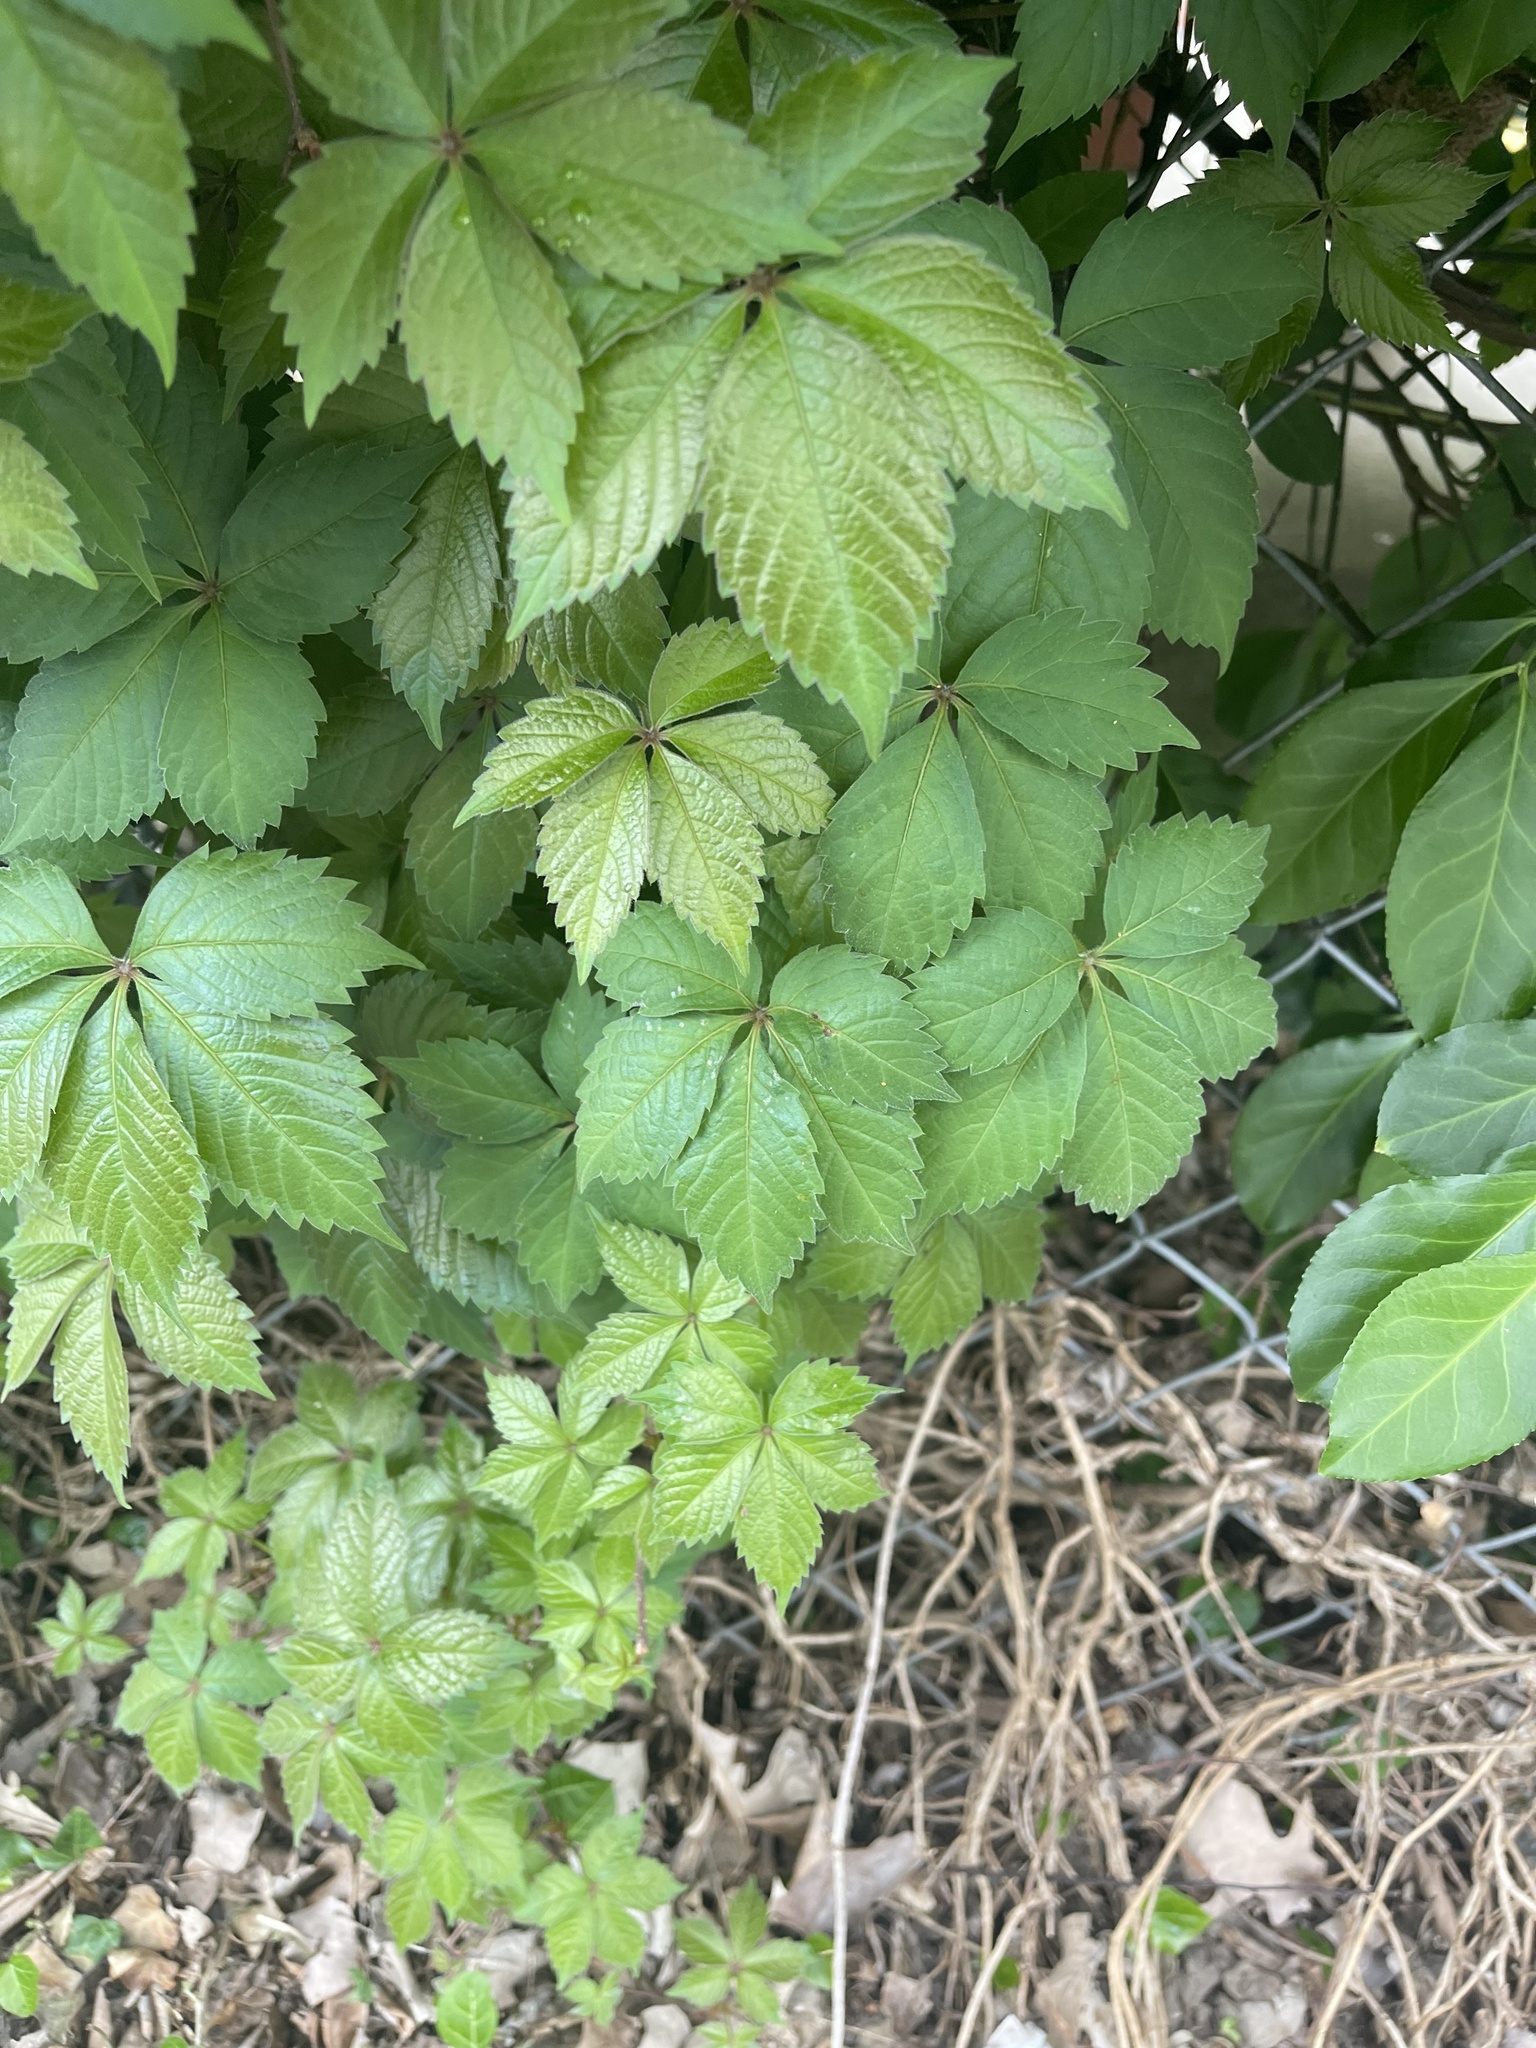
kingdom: Plantae
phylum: Tracheophyta
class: Magnoliopsida
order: Vitales
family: Vitaceae
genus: Parthenocissus
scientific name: Parthenocissus quinquefolia
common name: Virginia-creeper
